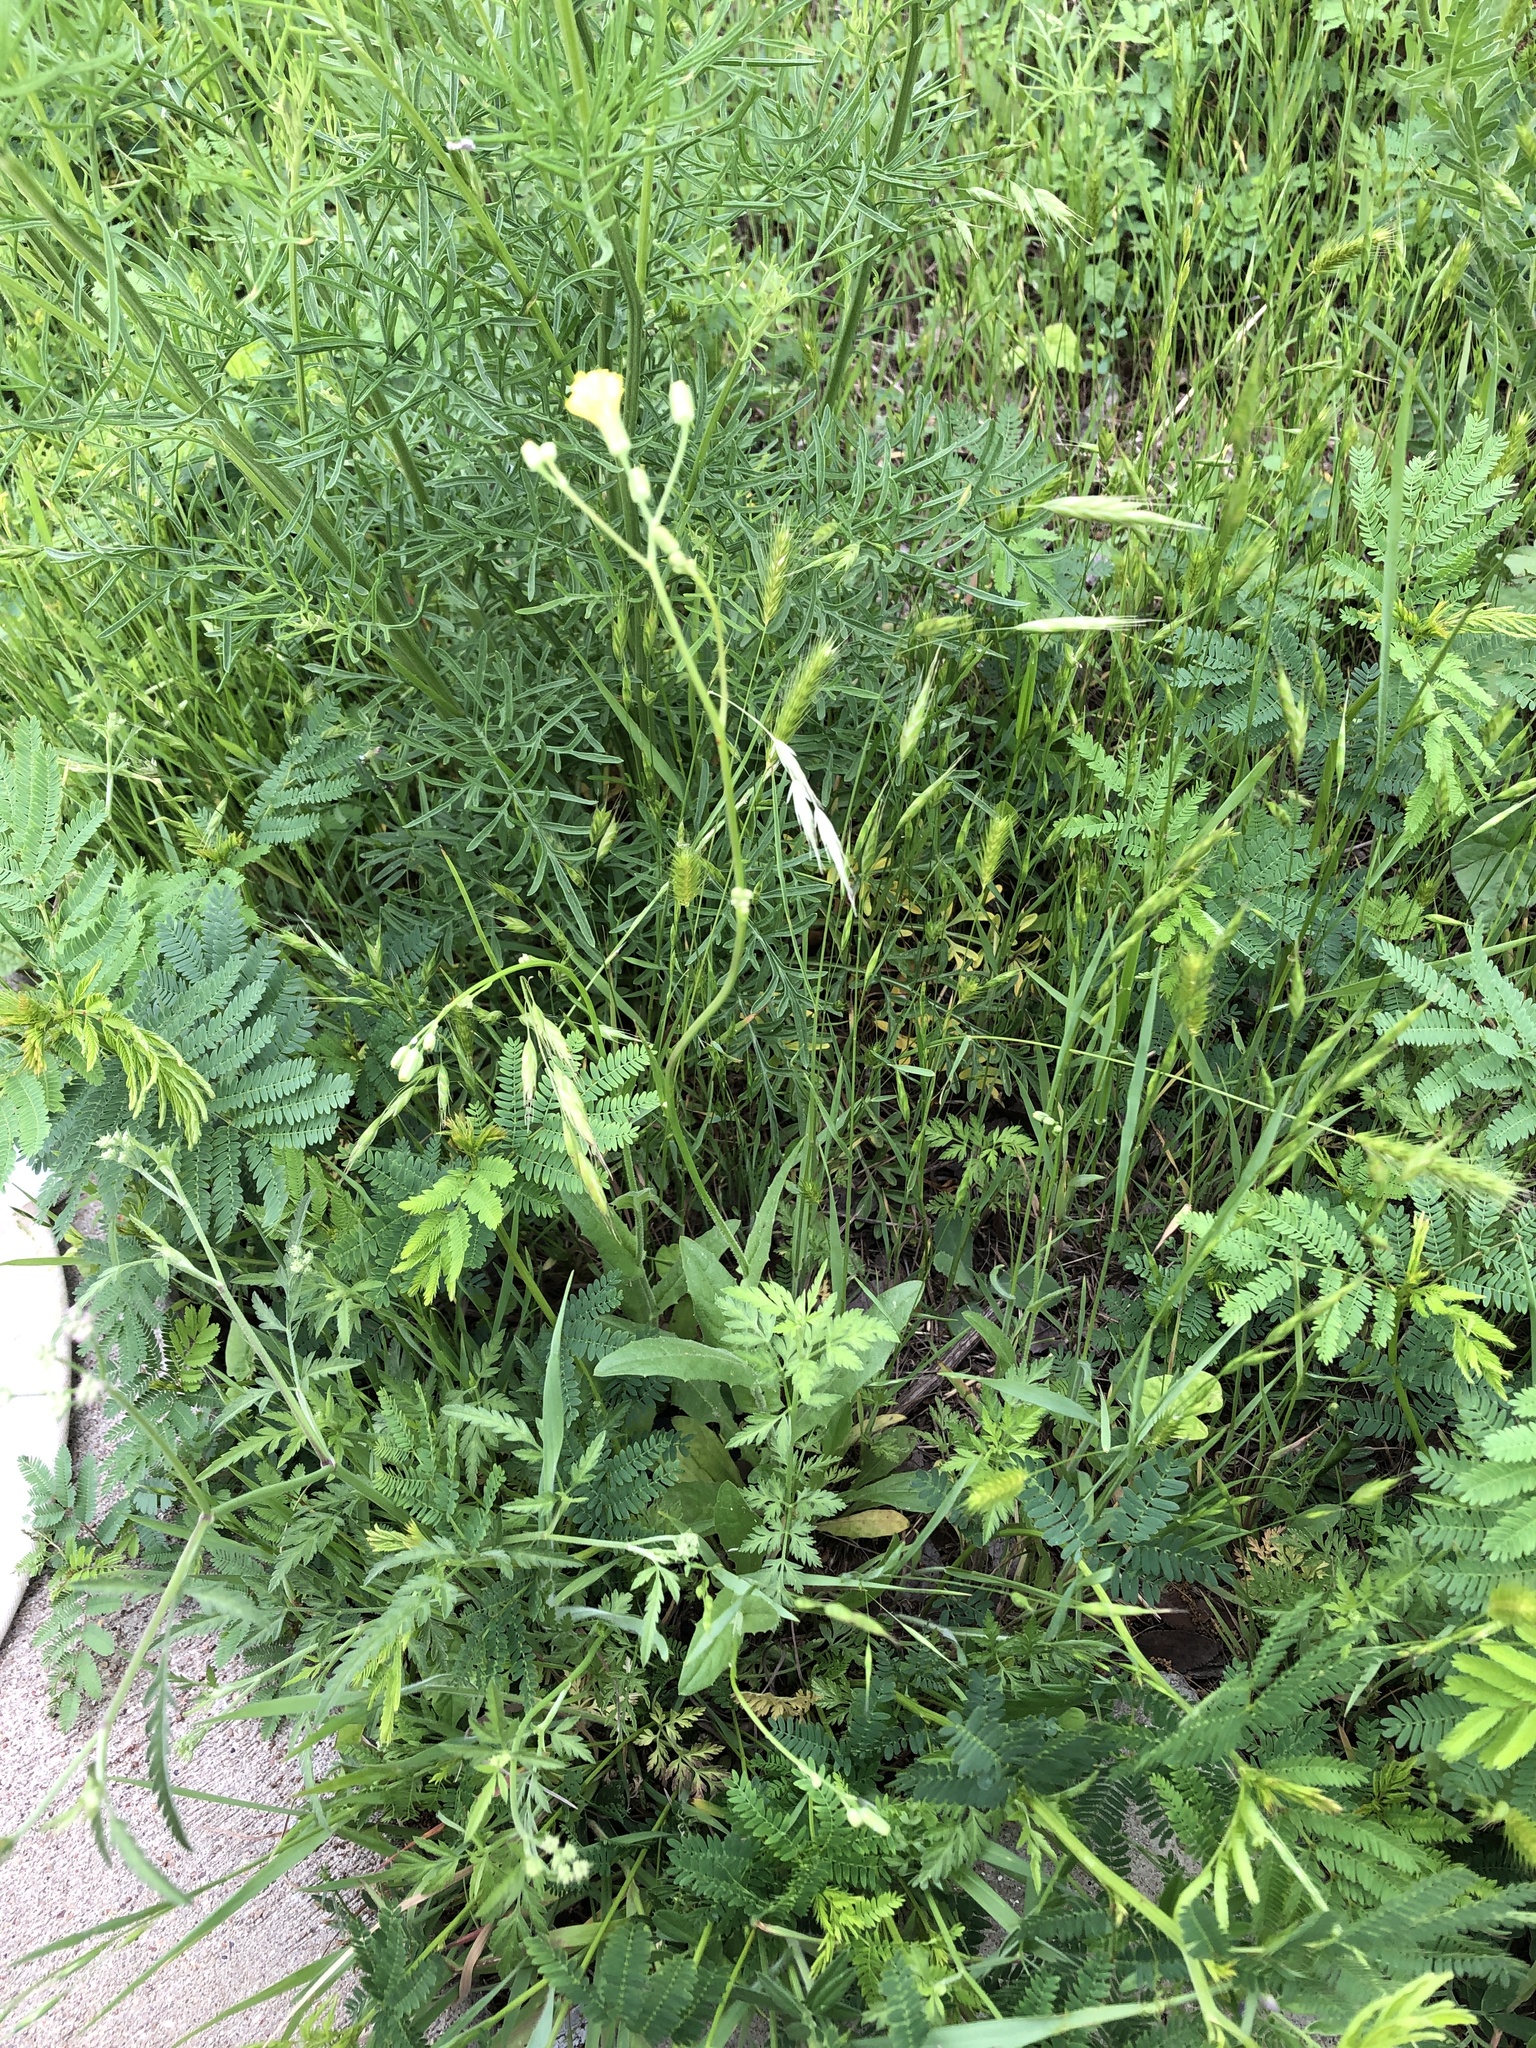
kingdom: Plantae
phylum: Tracheophyta
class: Magnoliopsida
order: Asterales
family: Asteraceae
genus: Crepis
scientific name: Crepis pulchra
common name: Hawk's-beard
